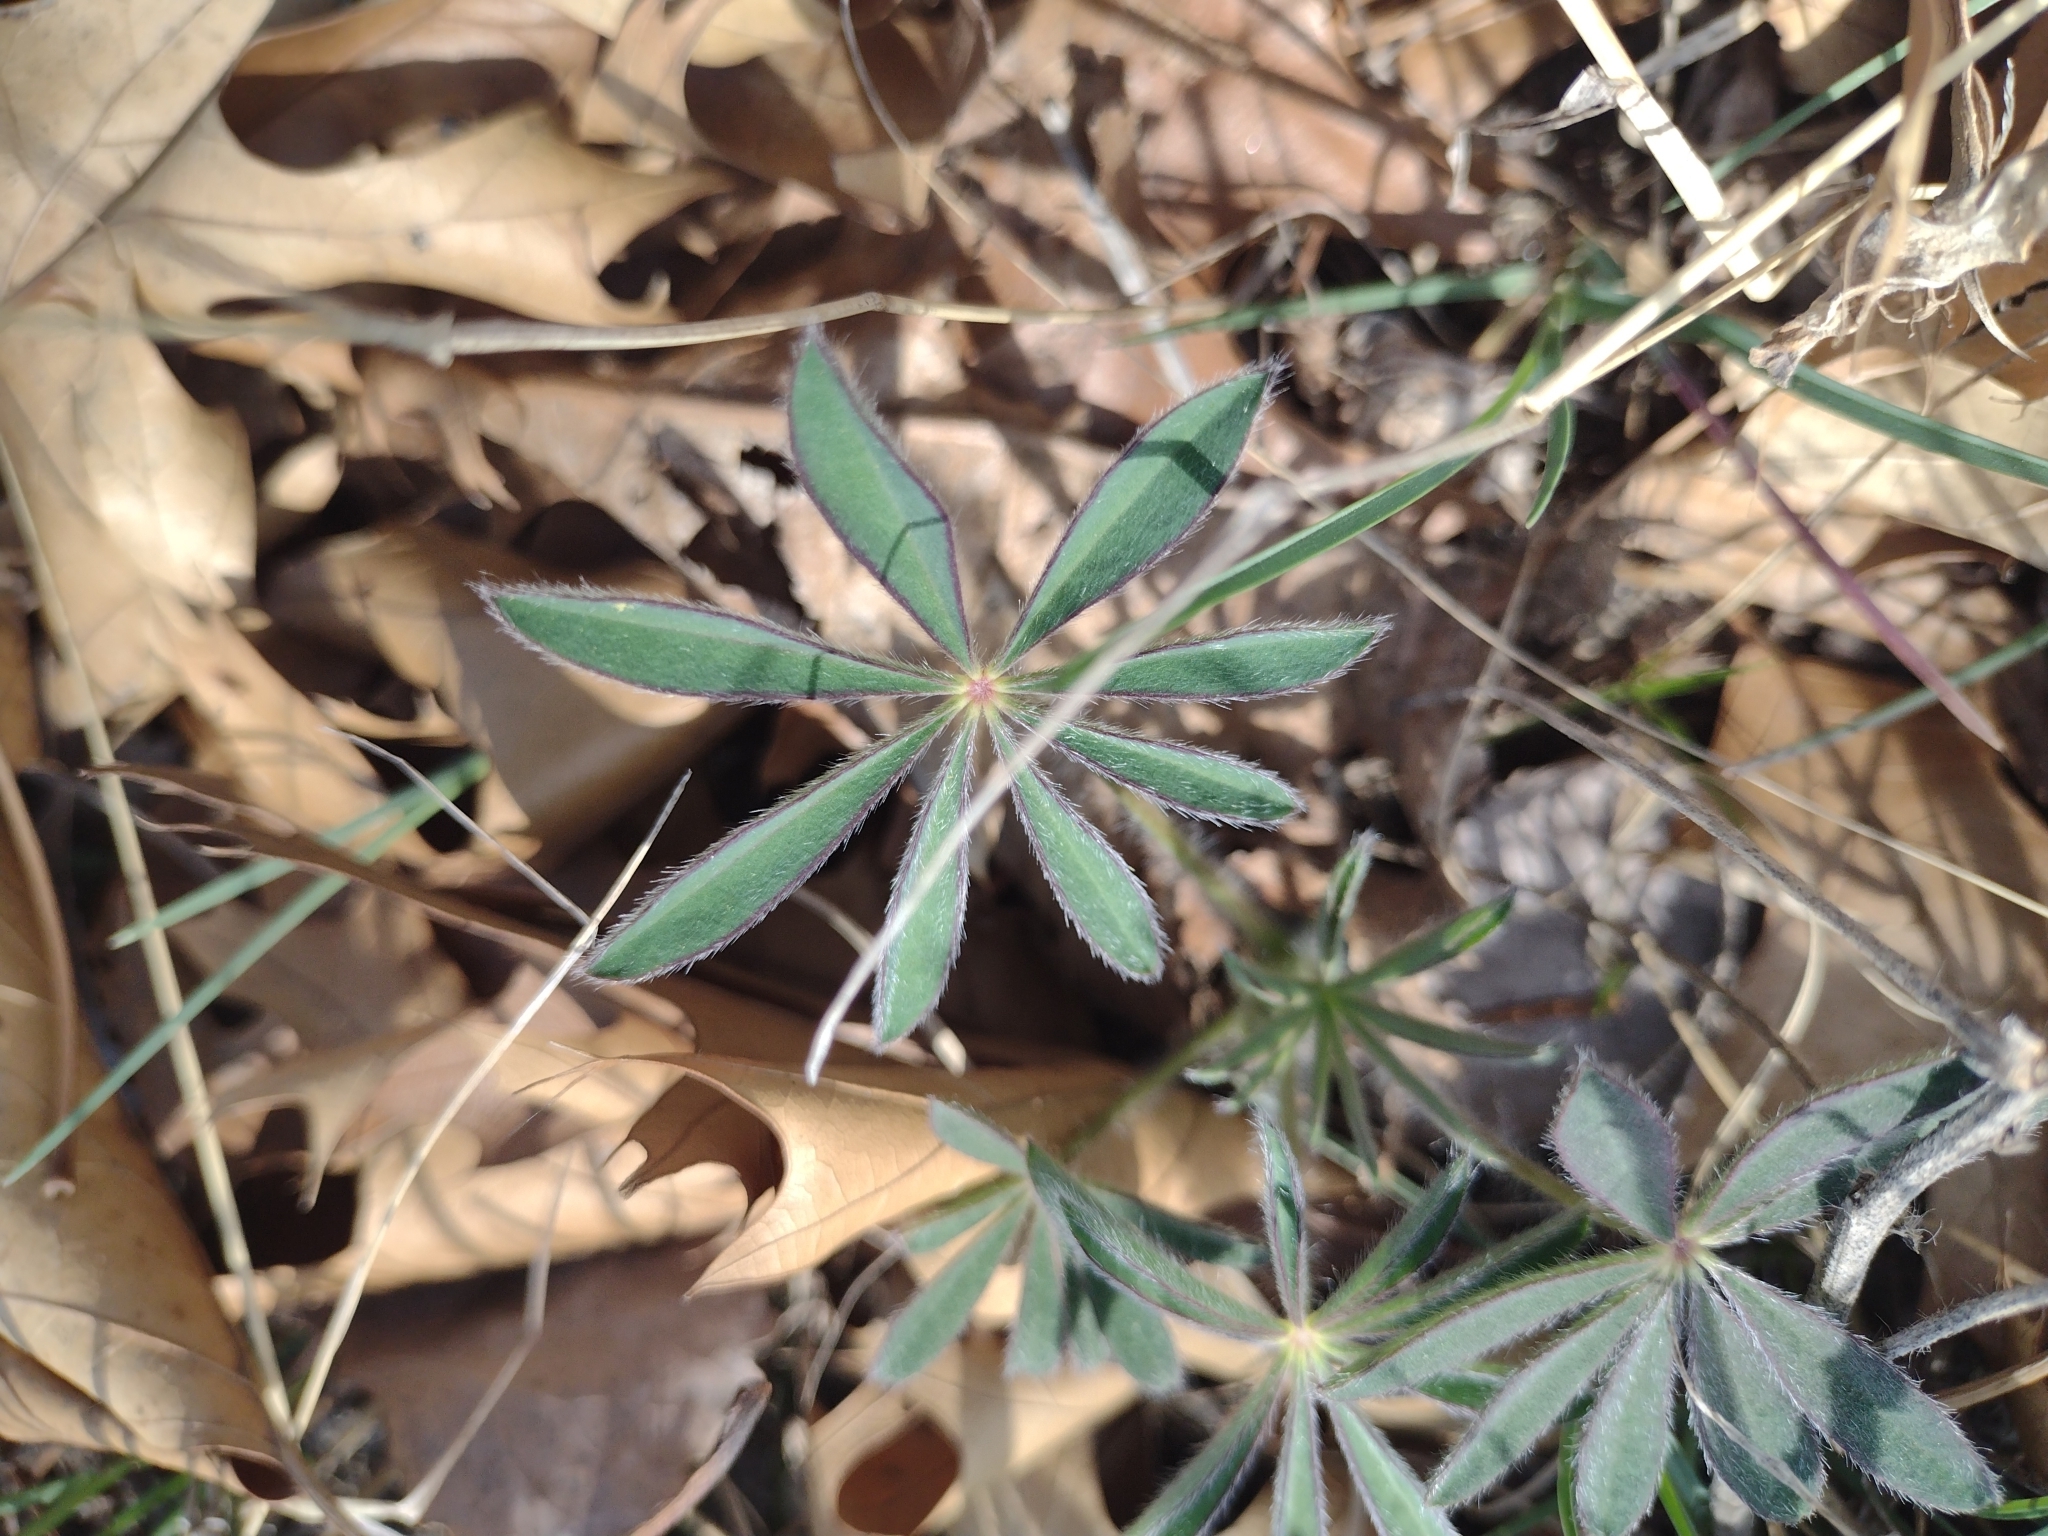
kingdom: Plantae
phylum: Tracheophyta
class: Magnoliopsida
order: Fabales
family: Fabaceae
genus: Lupinus
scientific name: Lupinus perennis
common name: Sundial lupine
